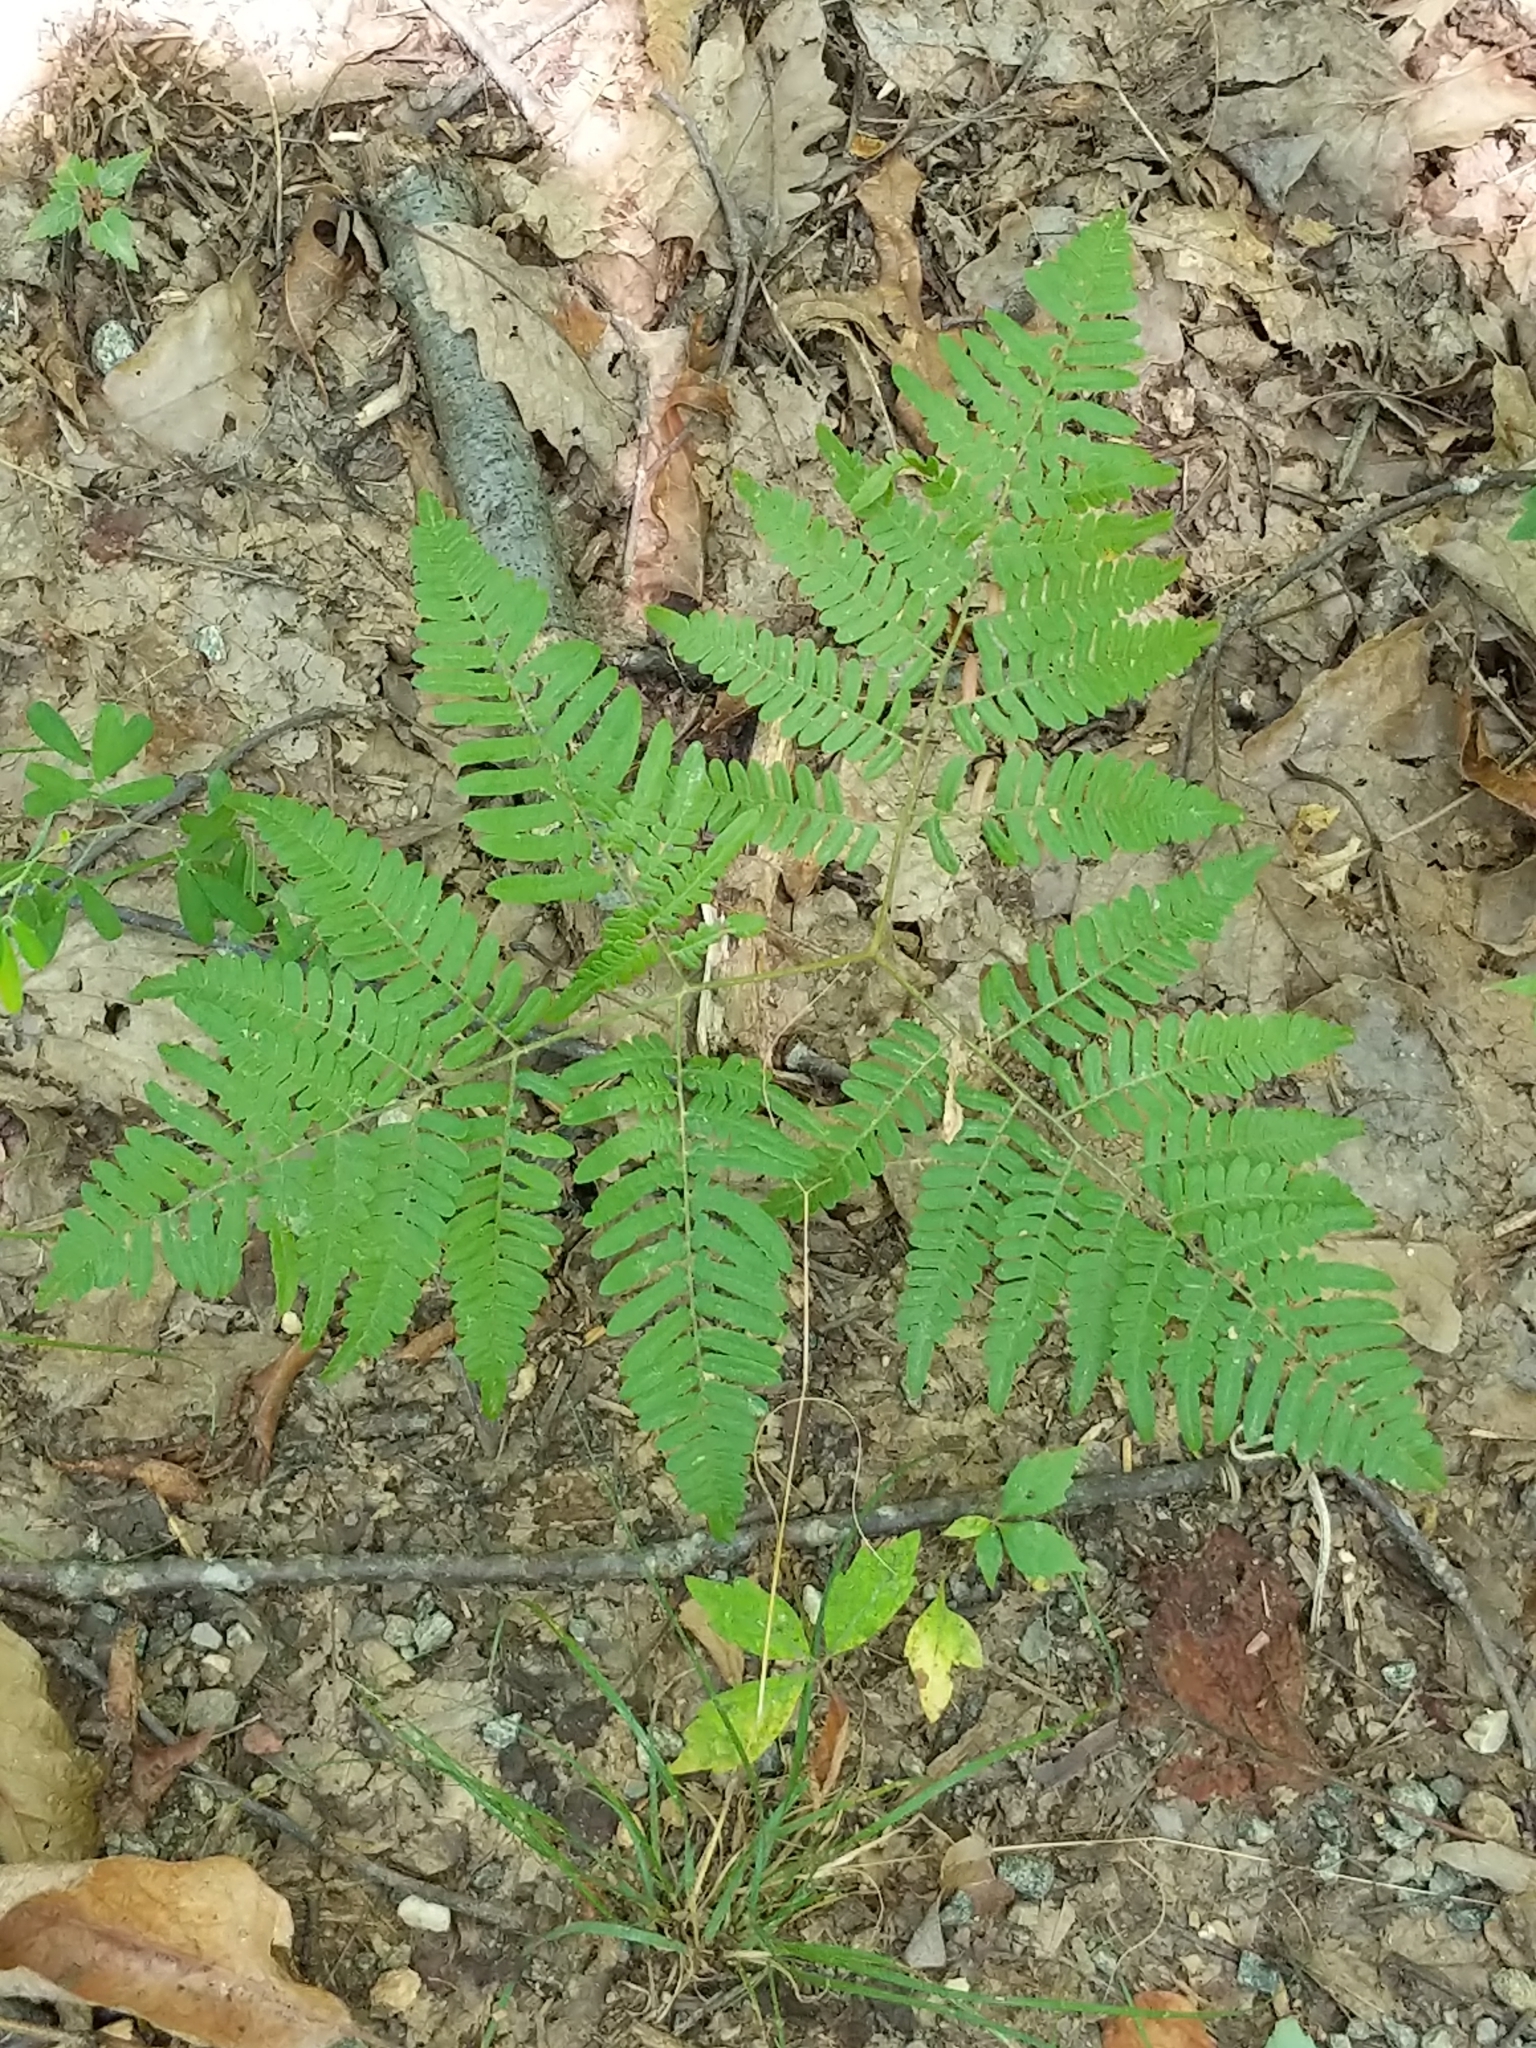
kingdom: Plantae
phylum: Tracheophyta
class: Polypodiopsida
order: Polypodiales
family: Dennstaedtiaceae
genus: Pteridium
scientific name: Pteridium aquilinum
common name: Bracken
